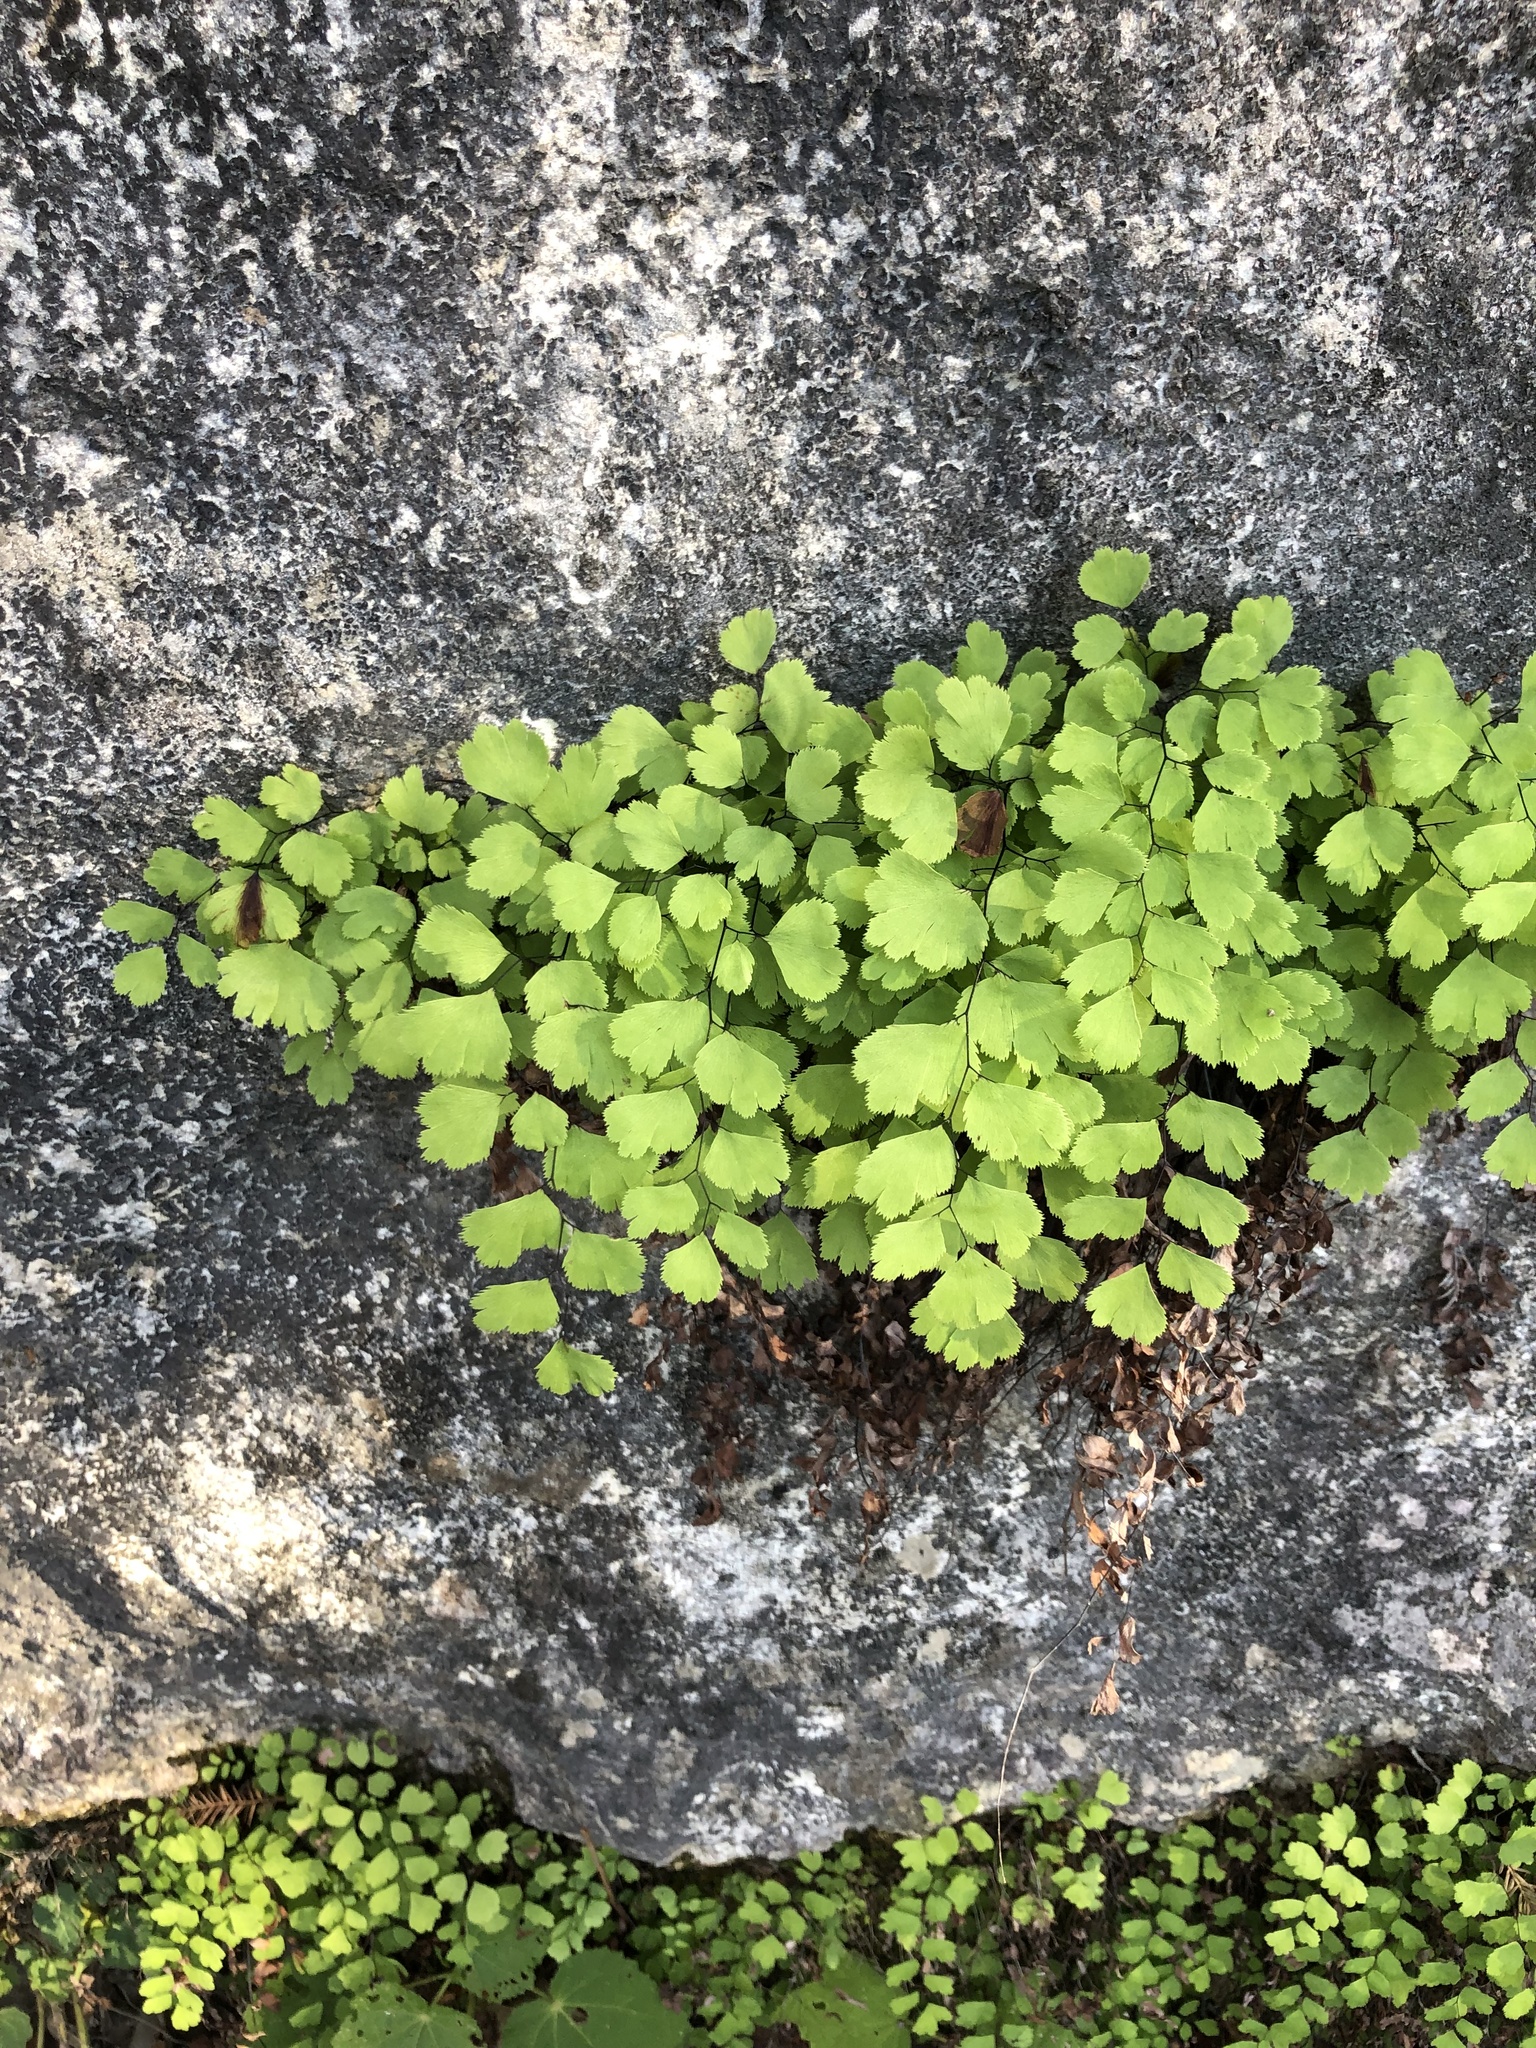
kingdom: Plantae
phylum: Tracheophyta
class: Polypodiopsida
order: Polypodiales
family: Pteridaceae
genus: Adiantum
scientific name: Adiantum capillus-veneris
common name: Maidenhair fern
